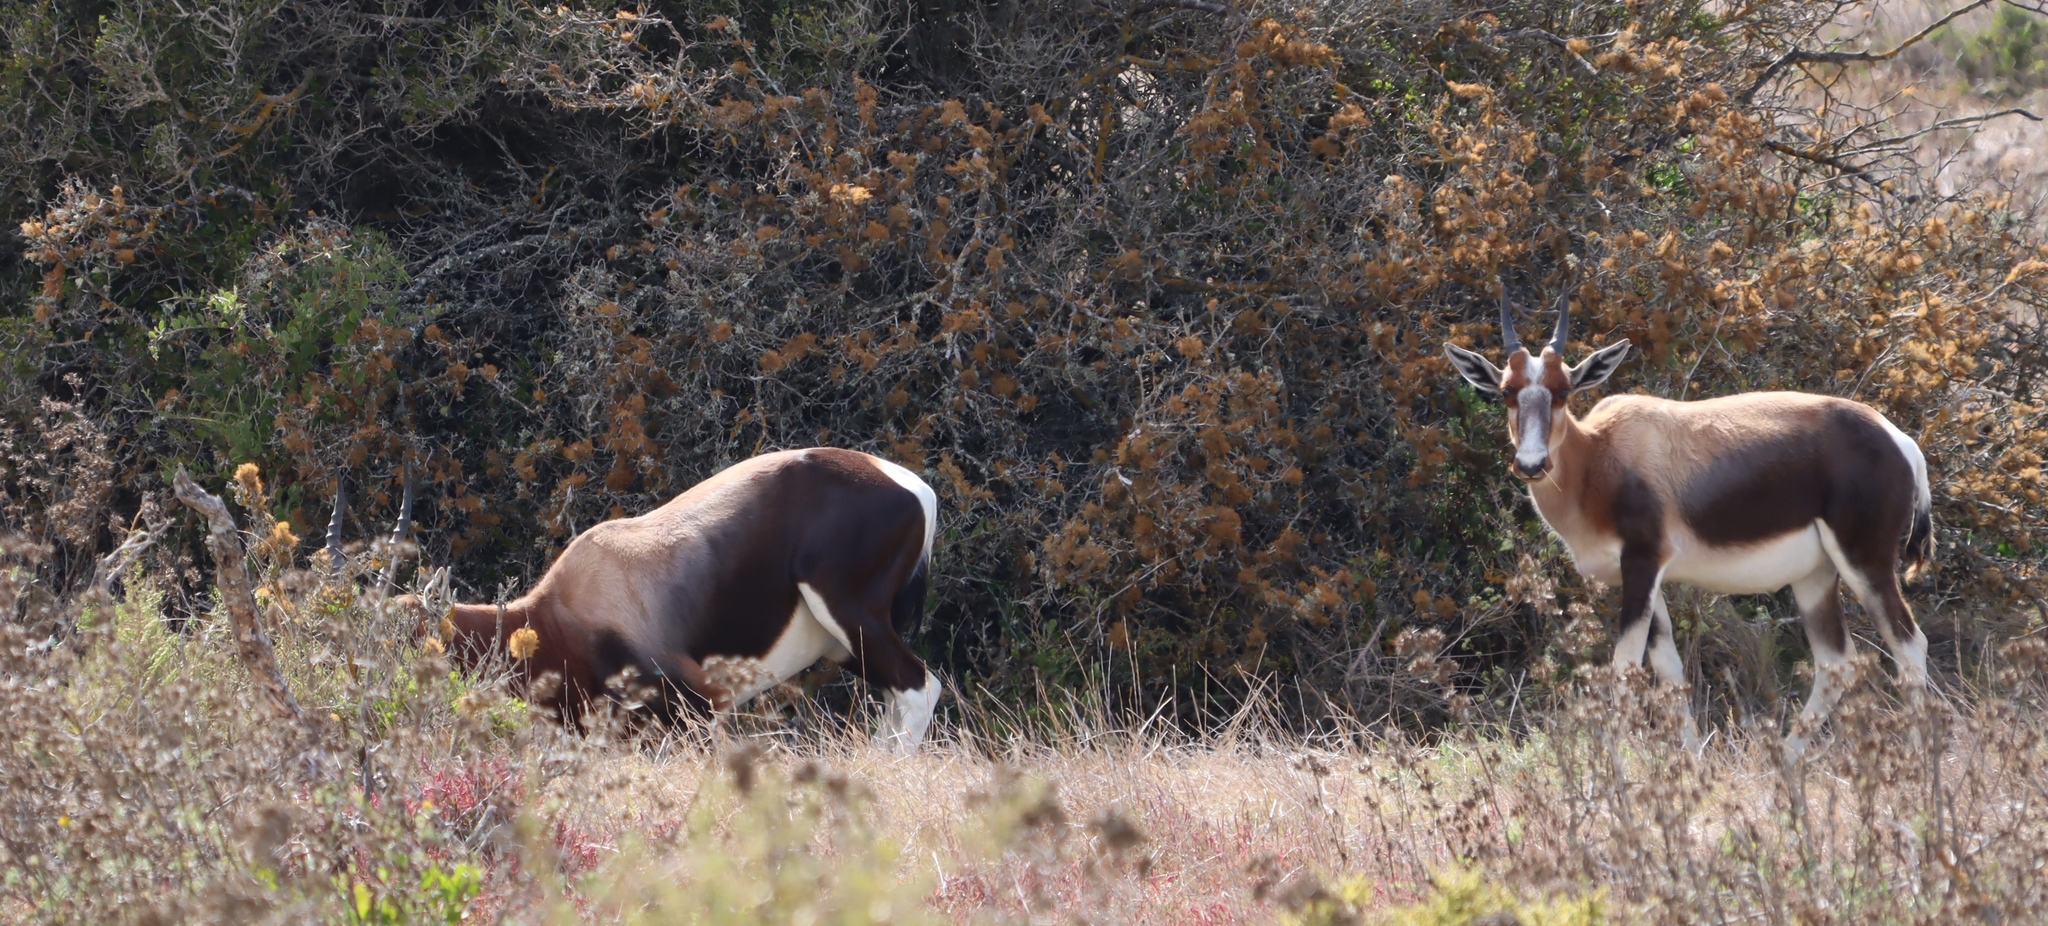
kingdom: Animalia
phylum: Chordata
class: Mammalia
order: Artiodactyla
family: Bovidae
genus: Damaliscus
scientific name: Damaliscus pygargus
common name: Bontebok
